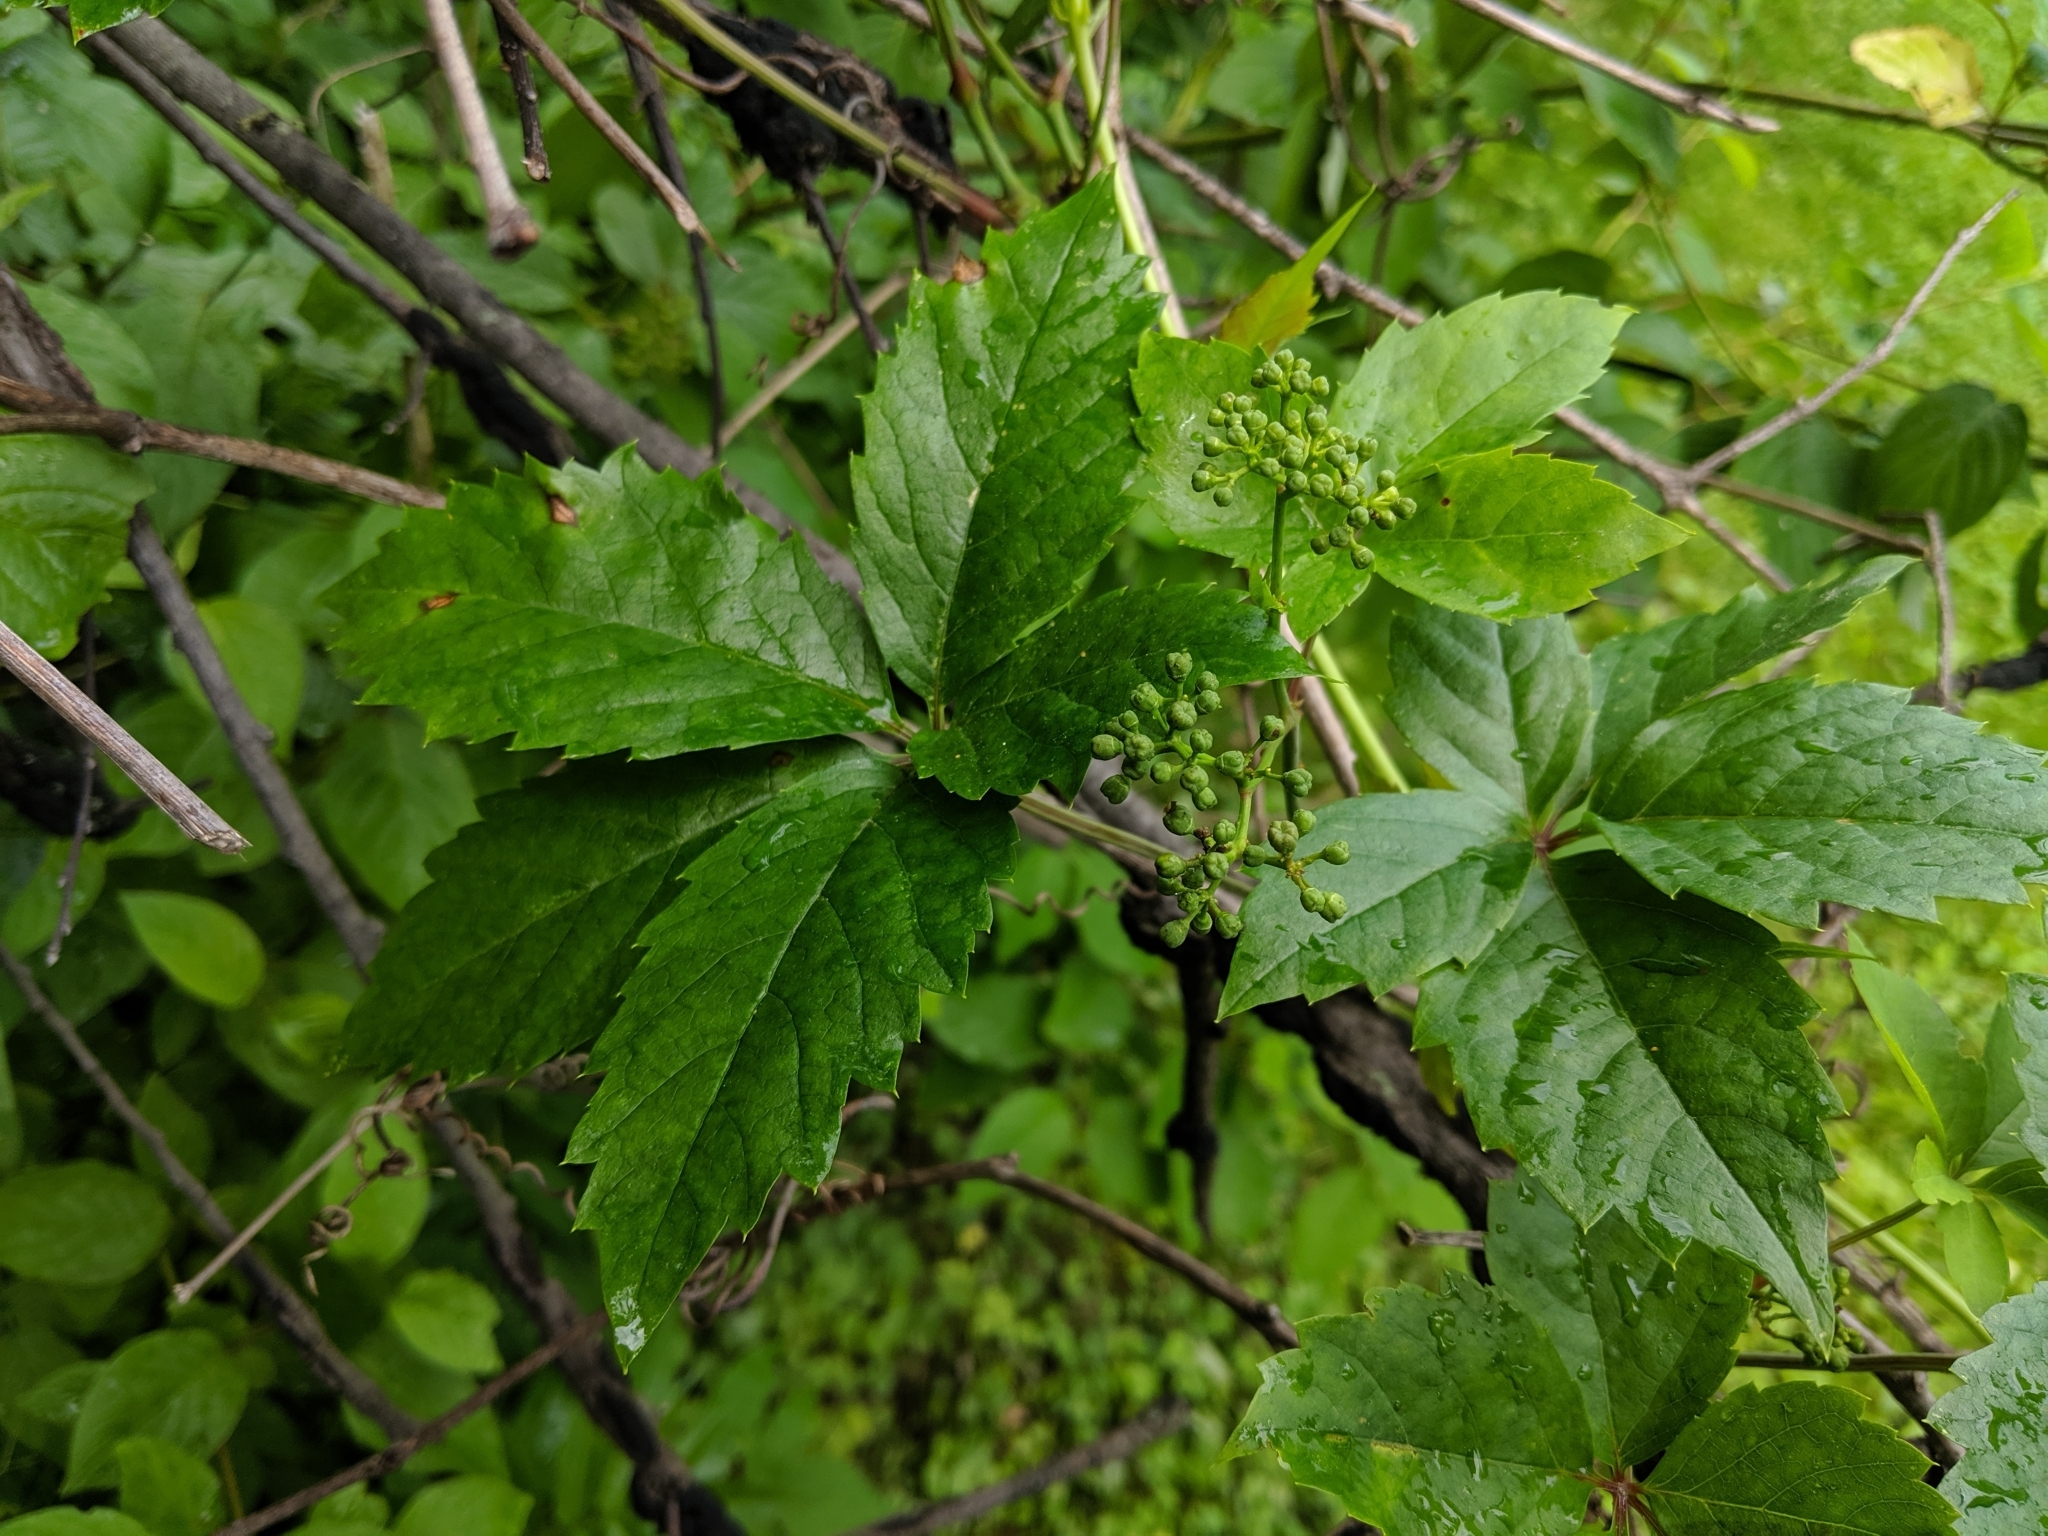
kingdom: Plantae
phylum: Tracheophyta
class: Magnoliopsida
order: Vitales
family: Vitaceae
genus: Parthenocissus
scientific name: Parthenocissus inserta
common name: False virginia-creeper
